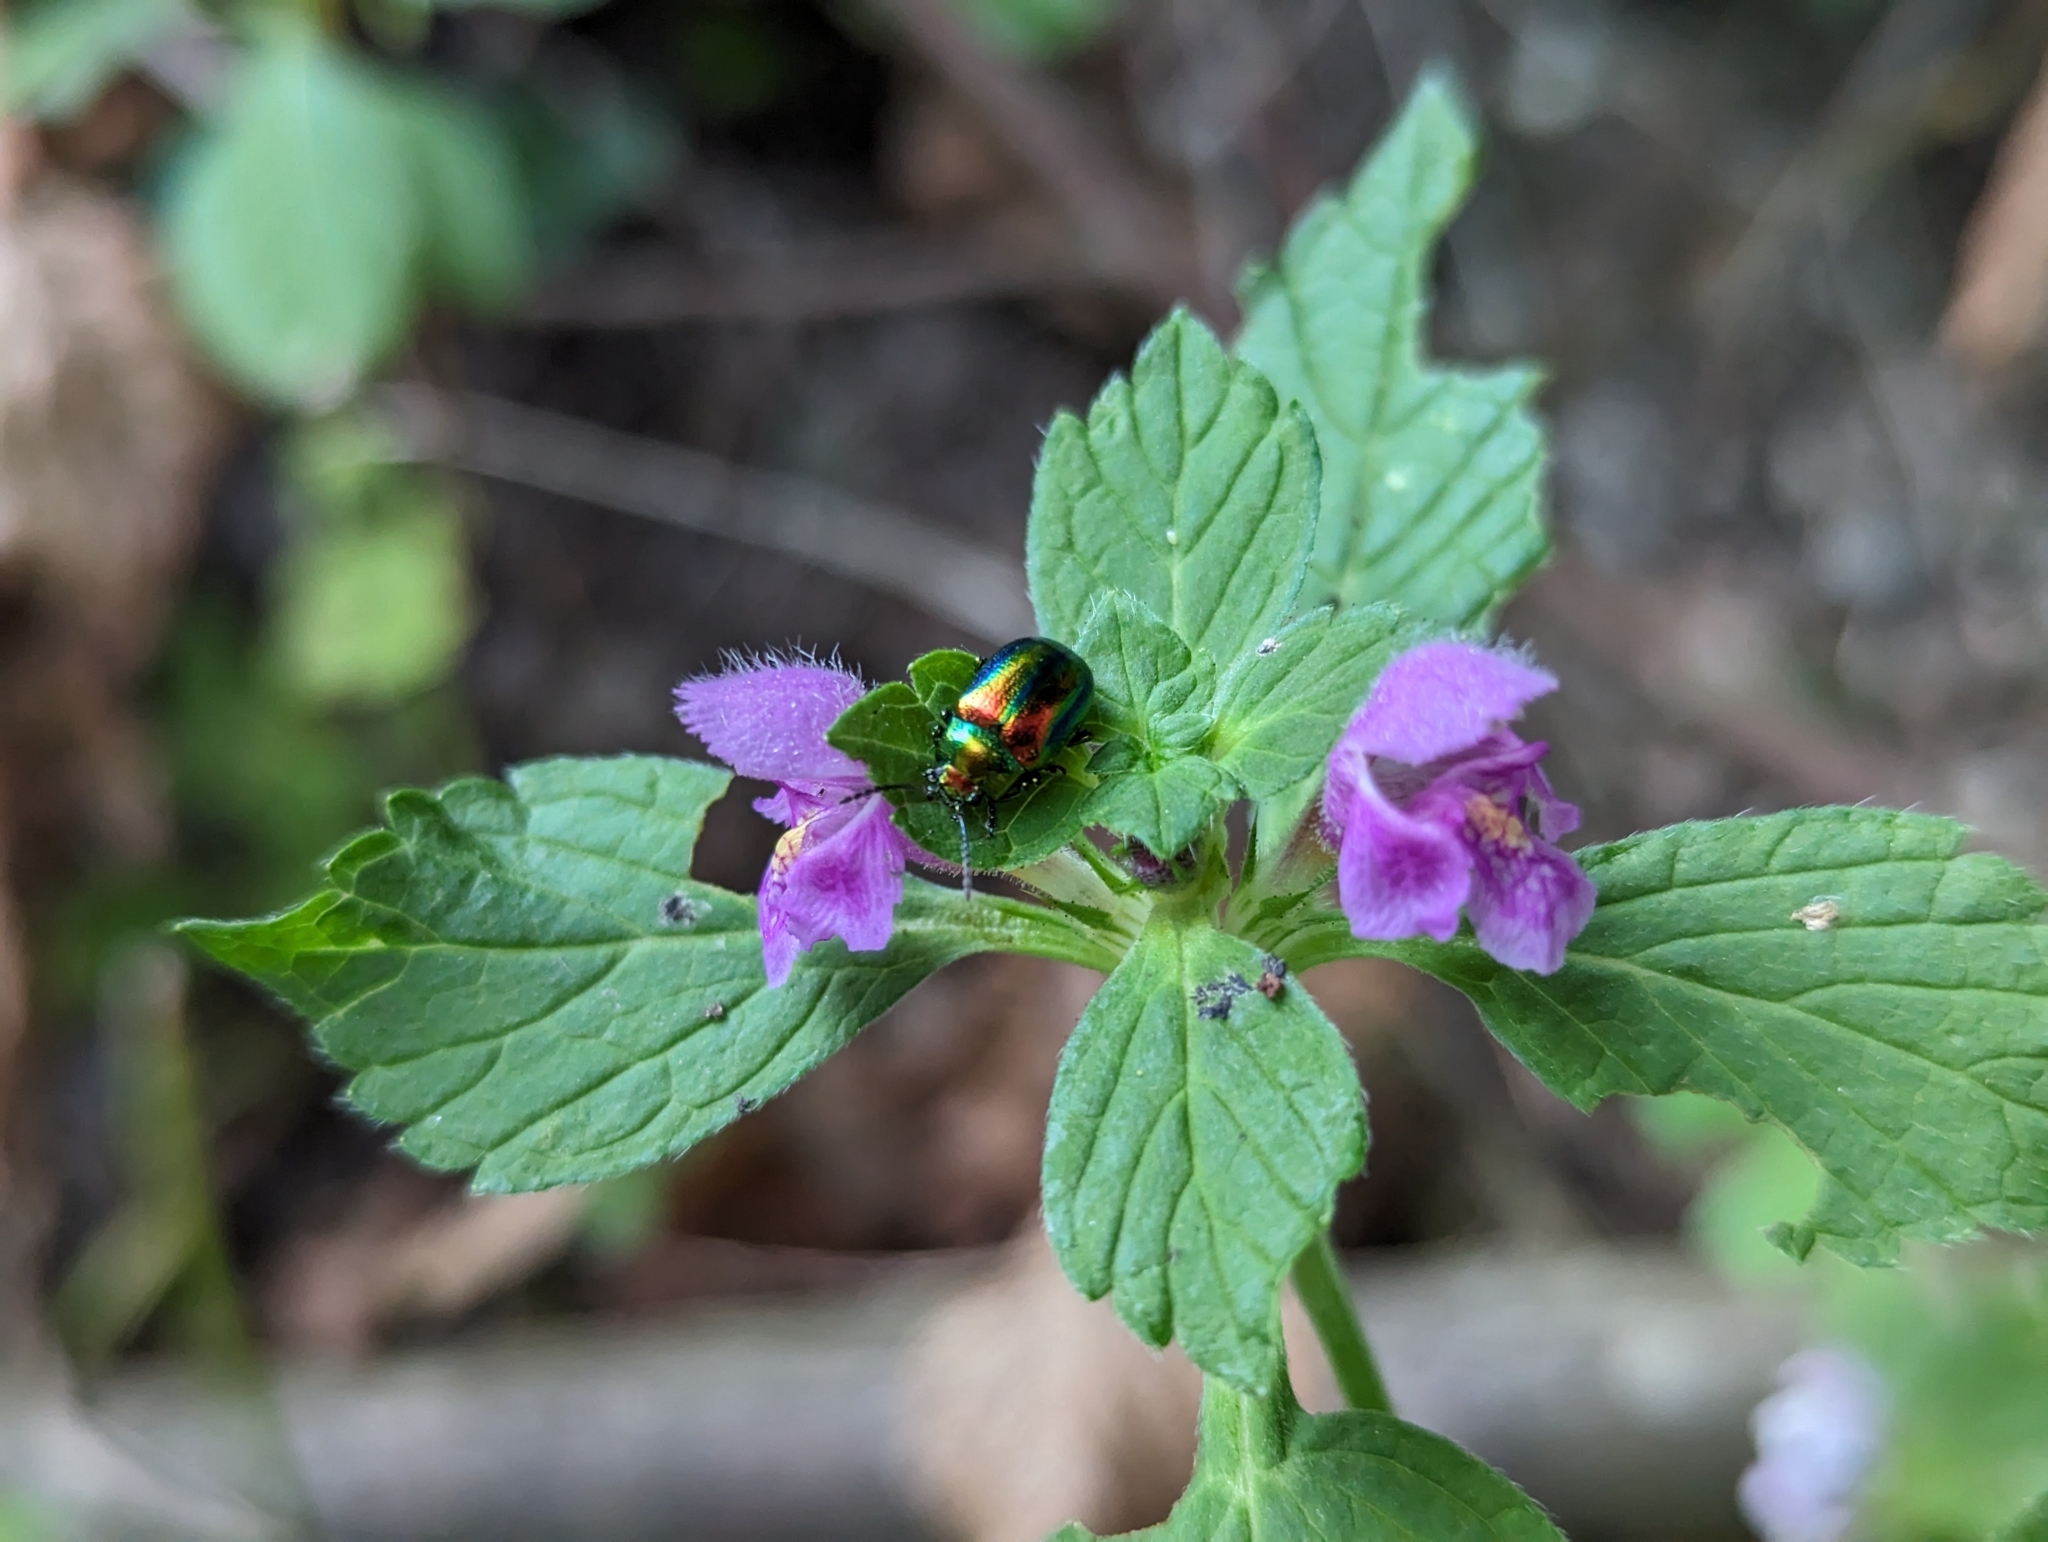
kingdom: Animalia
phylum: Arthropoda
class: Insecta
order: Coleoptera
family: Chrysomelidae
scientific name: Chrysomelidae
